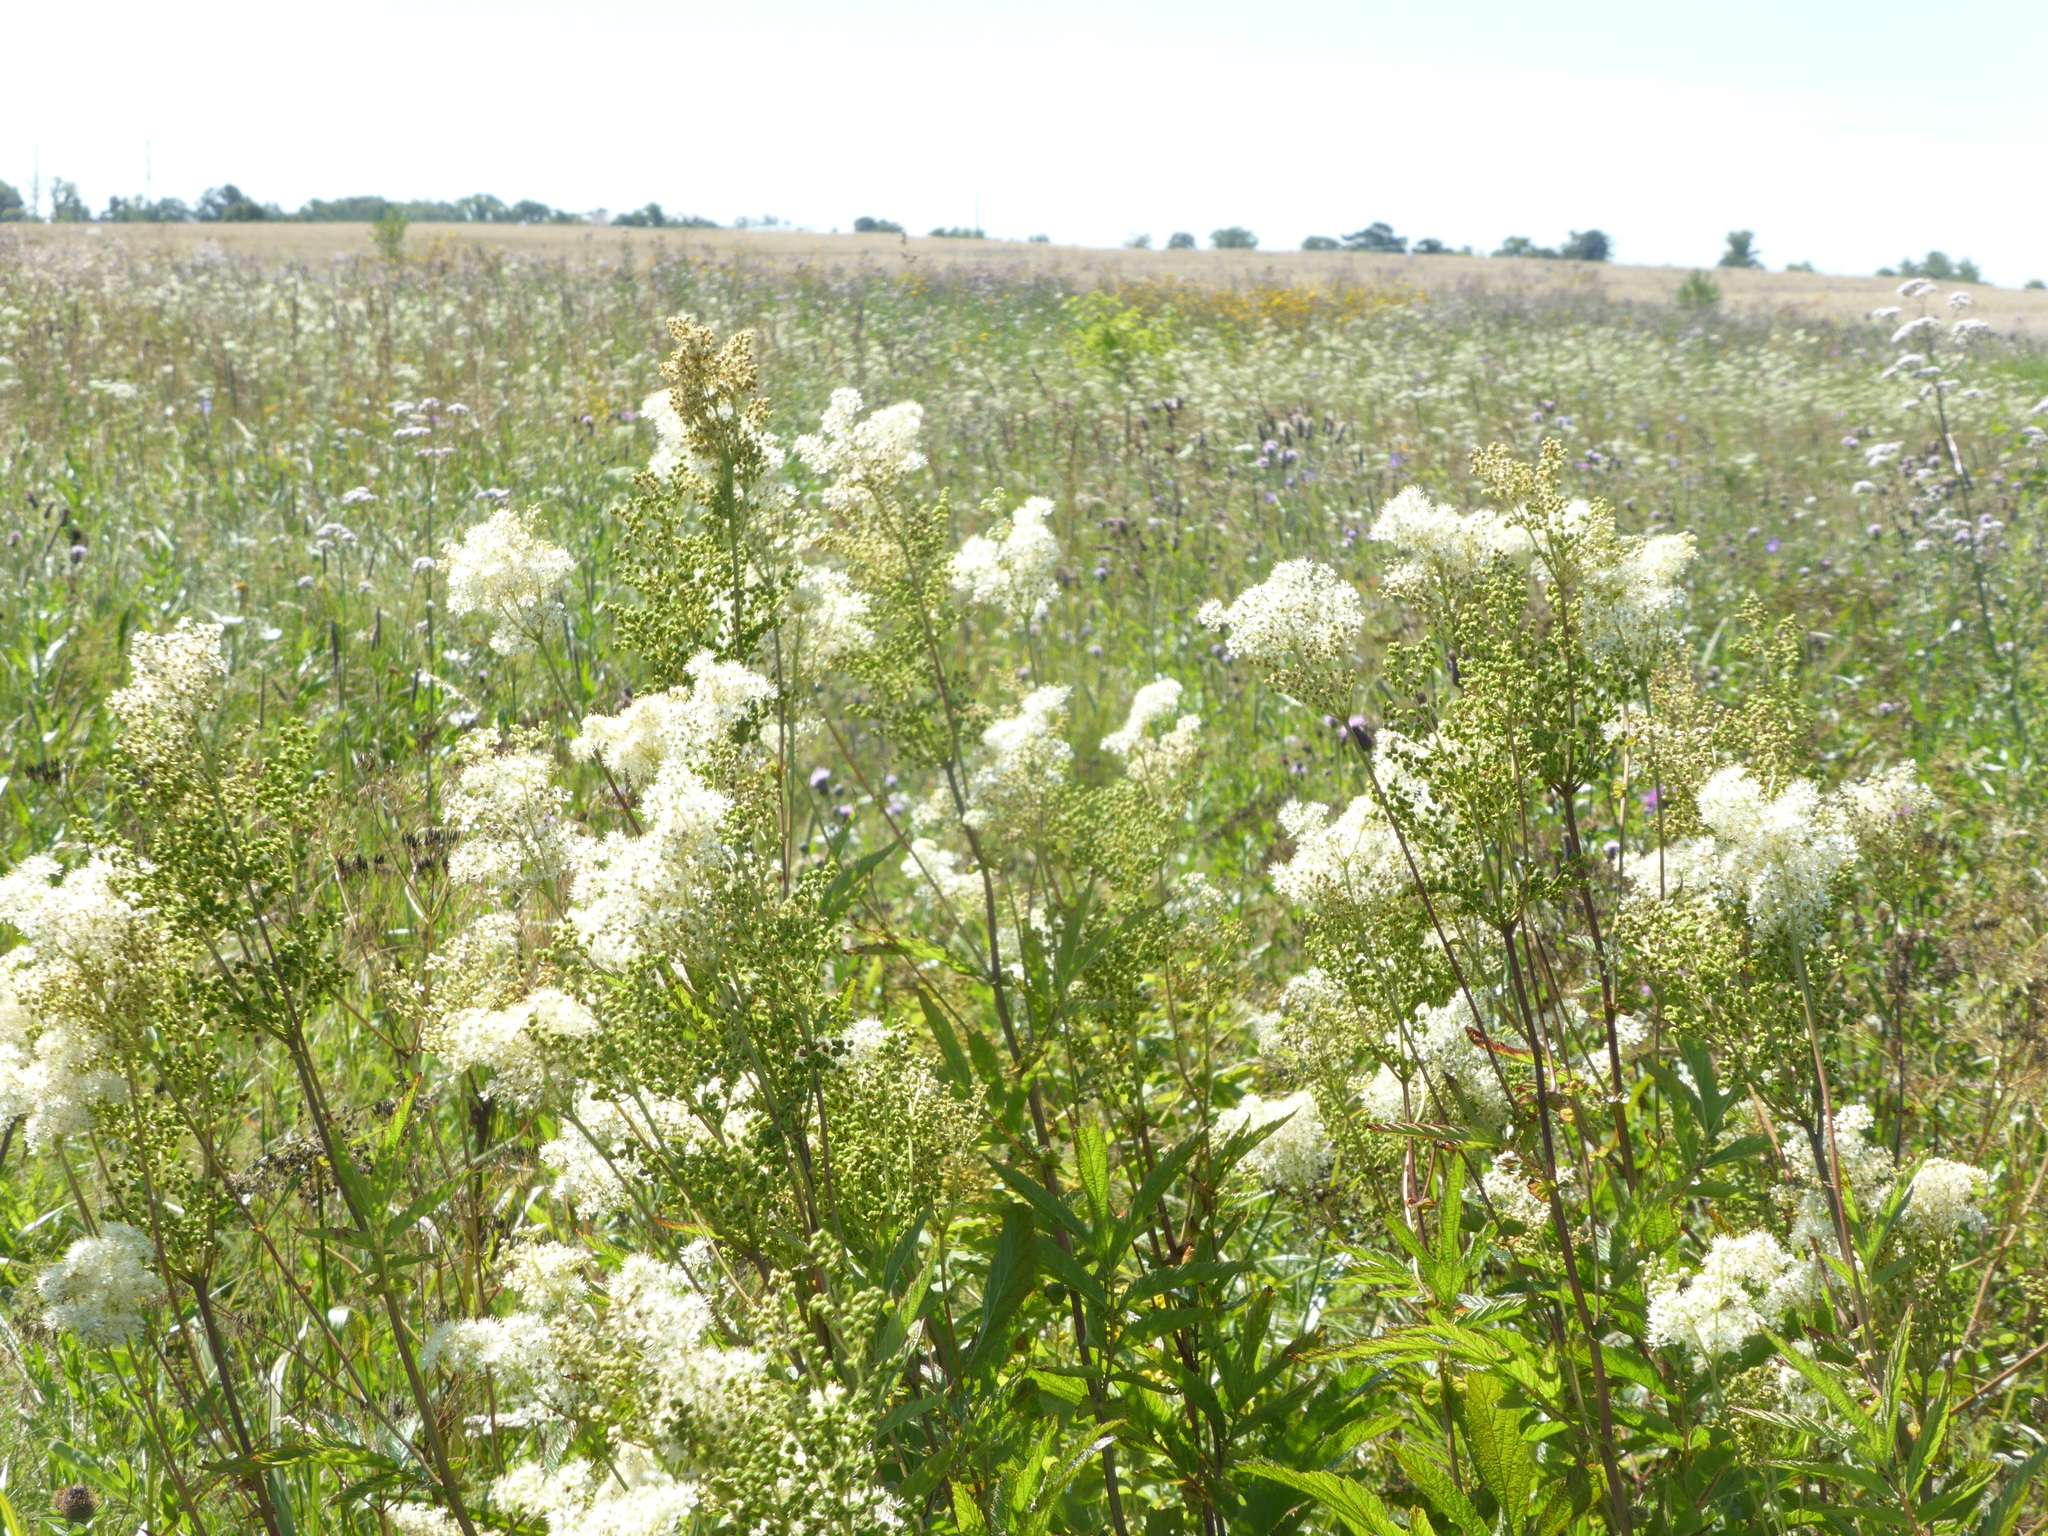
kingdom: Plantae
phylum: Tracheophyta
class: Magnoliopsida
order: Rosales
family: Rosaceae
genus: Filipendula
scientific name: Filipendula ulmaria
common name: Meadowsweet
